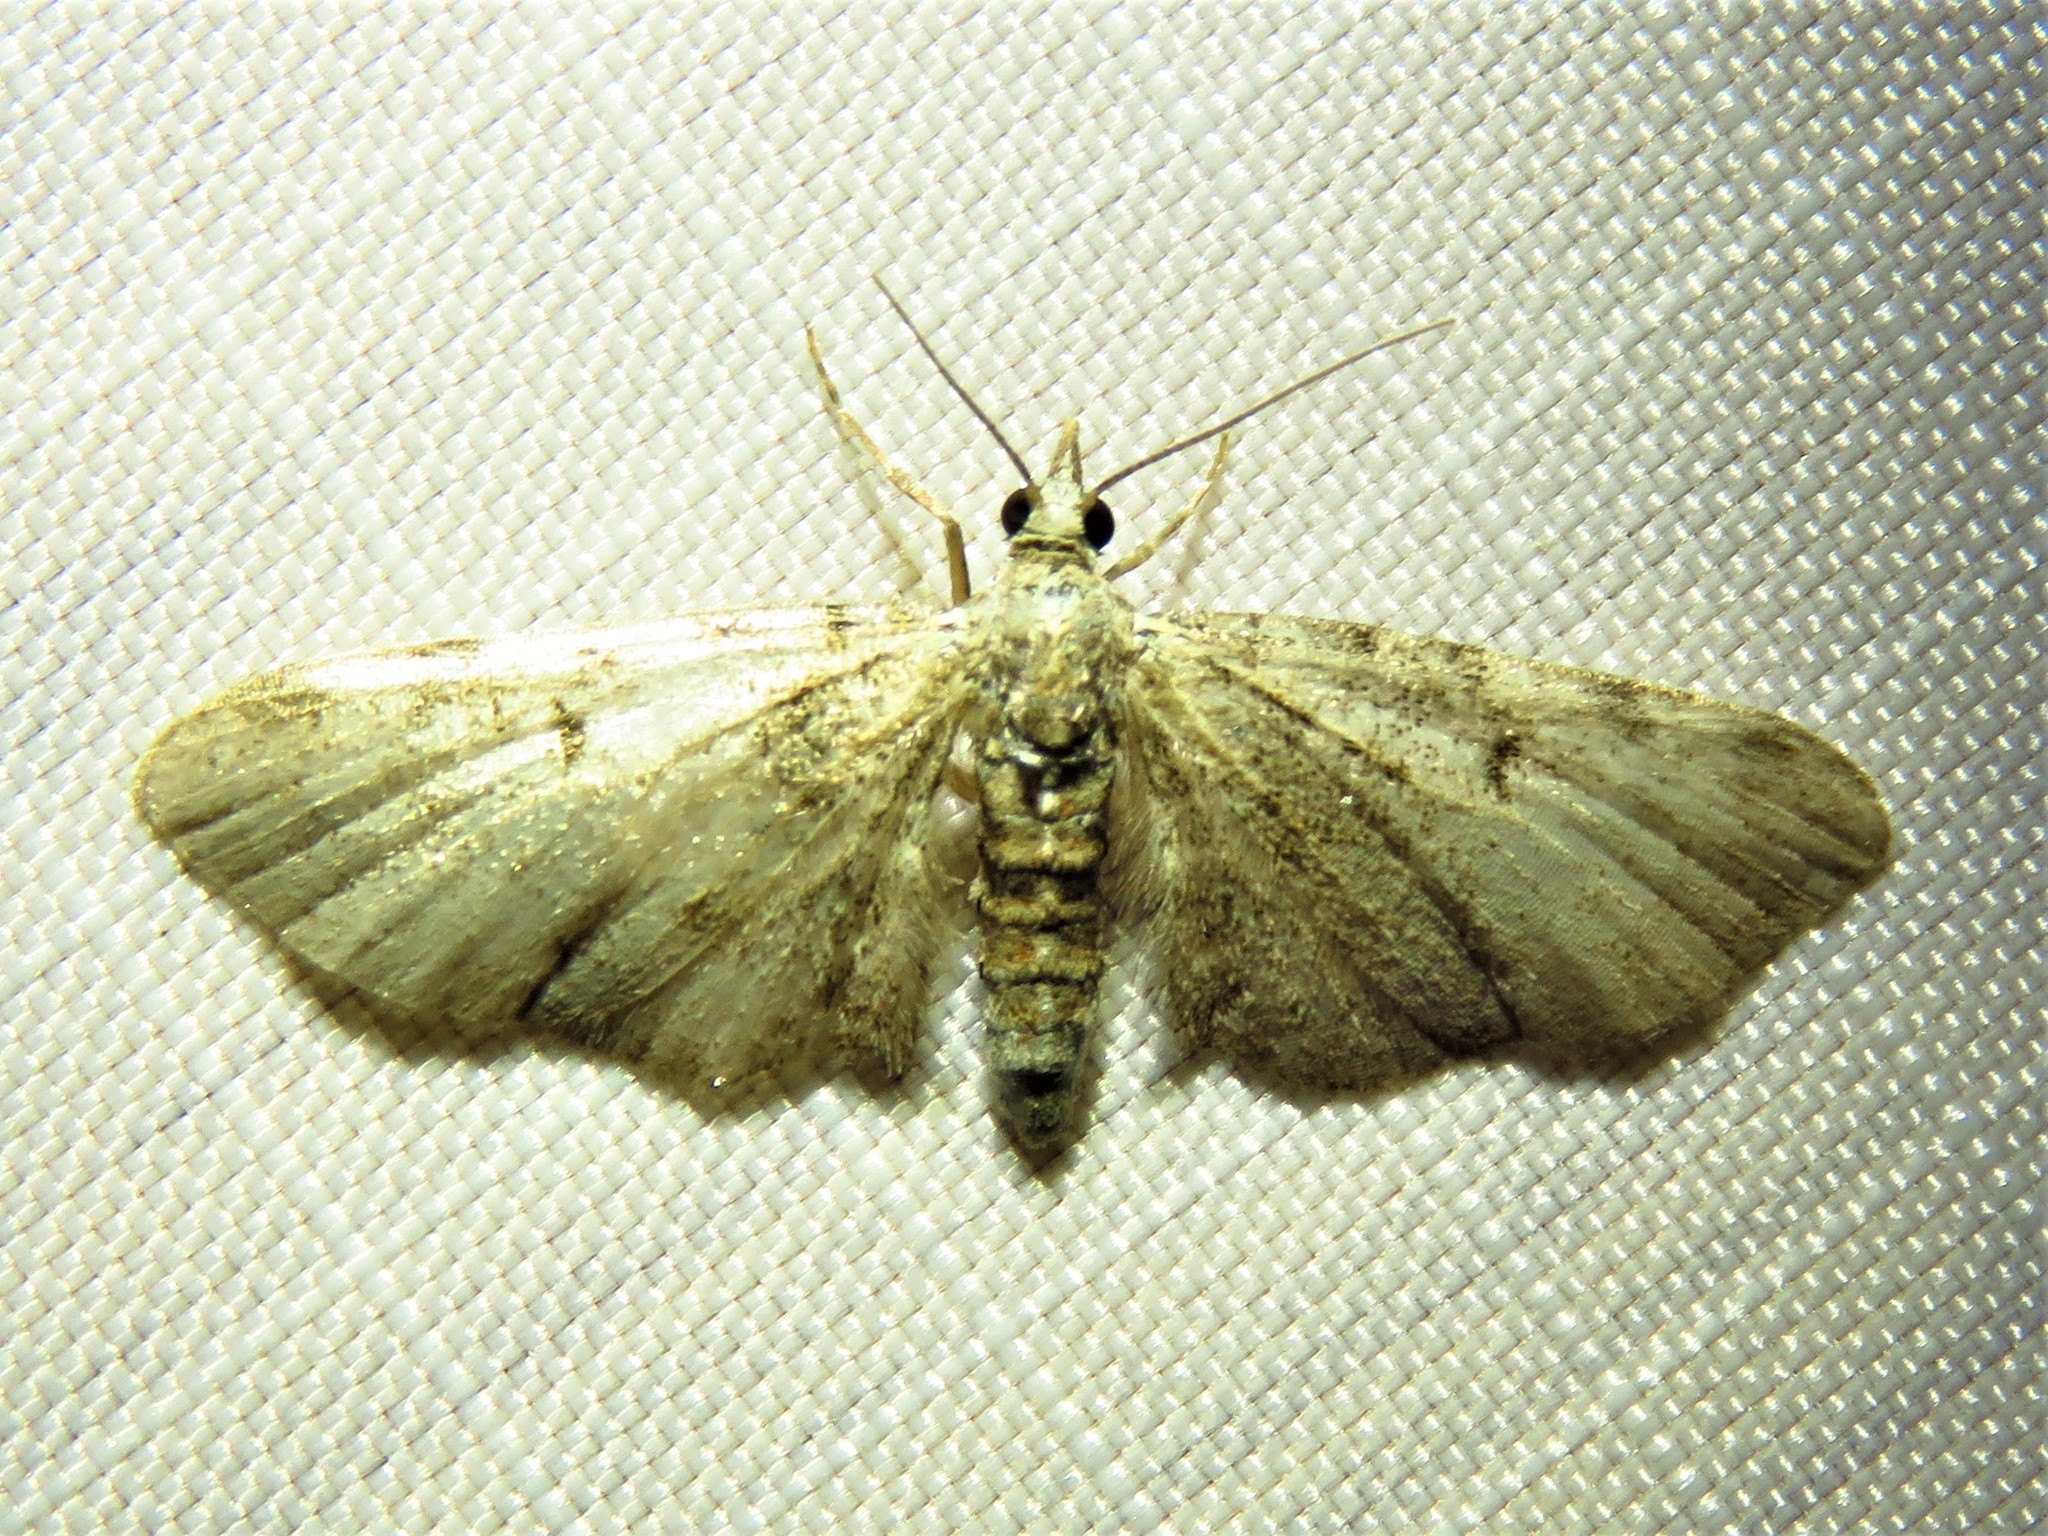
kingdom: Animalia
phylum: Arthropoda
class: Insecta
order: Lepidoptera
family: Geometridae
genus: Eupithecia
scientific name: Eupithecia miserulata
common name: Common eupithecia
